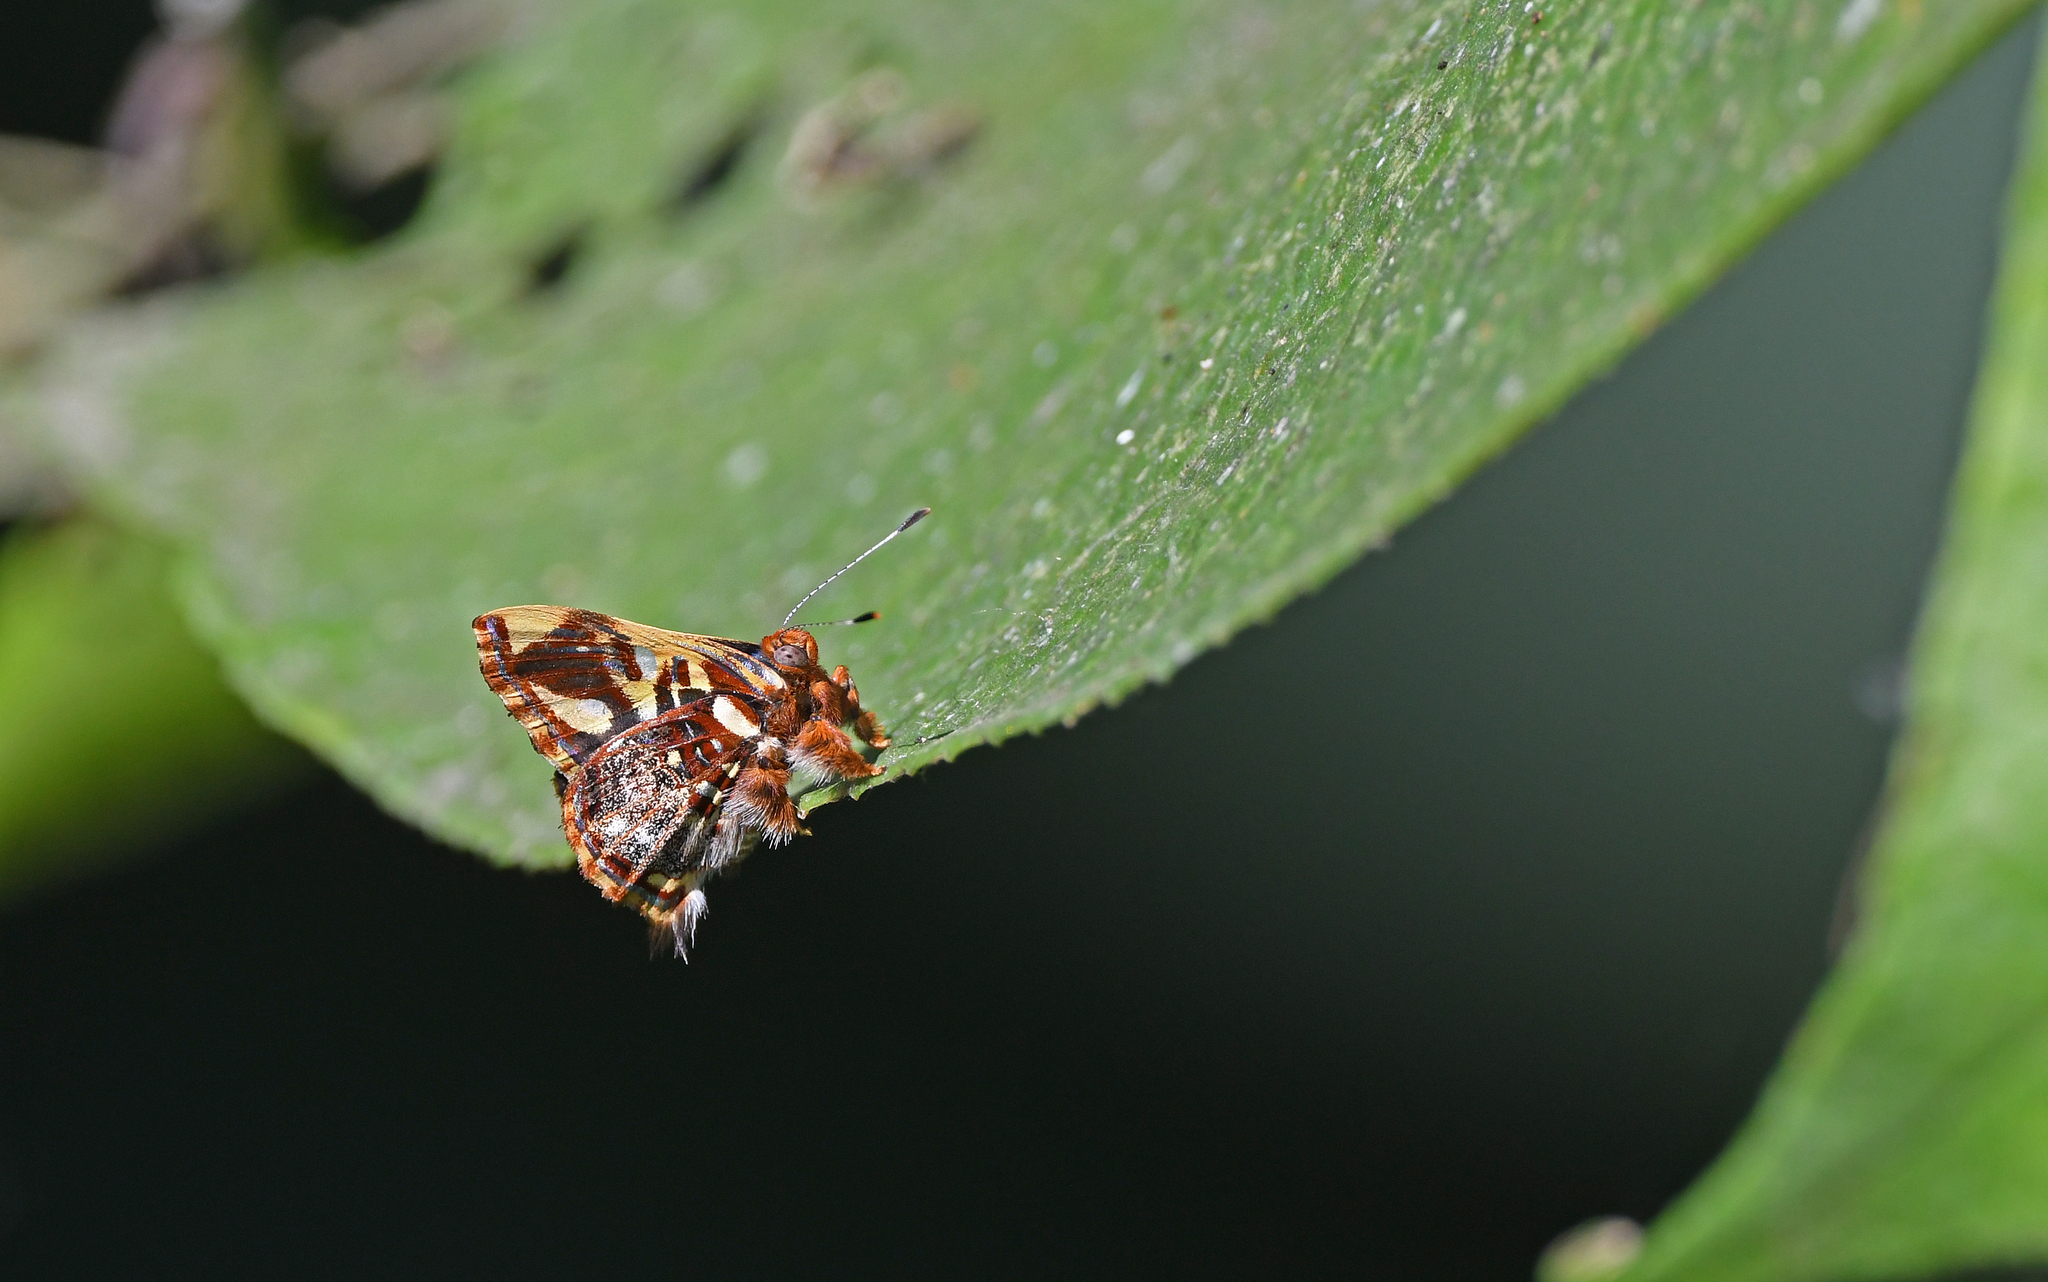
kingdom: Animalia
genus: Anteros
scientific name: Anteros carausius
